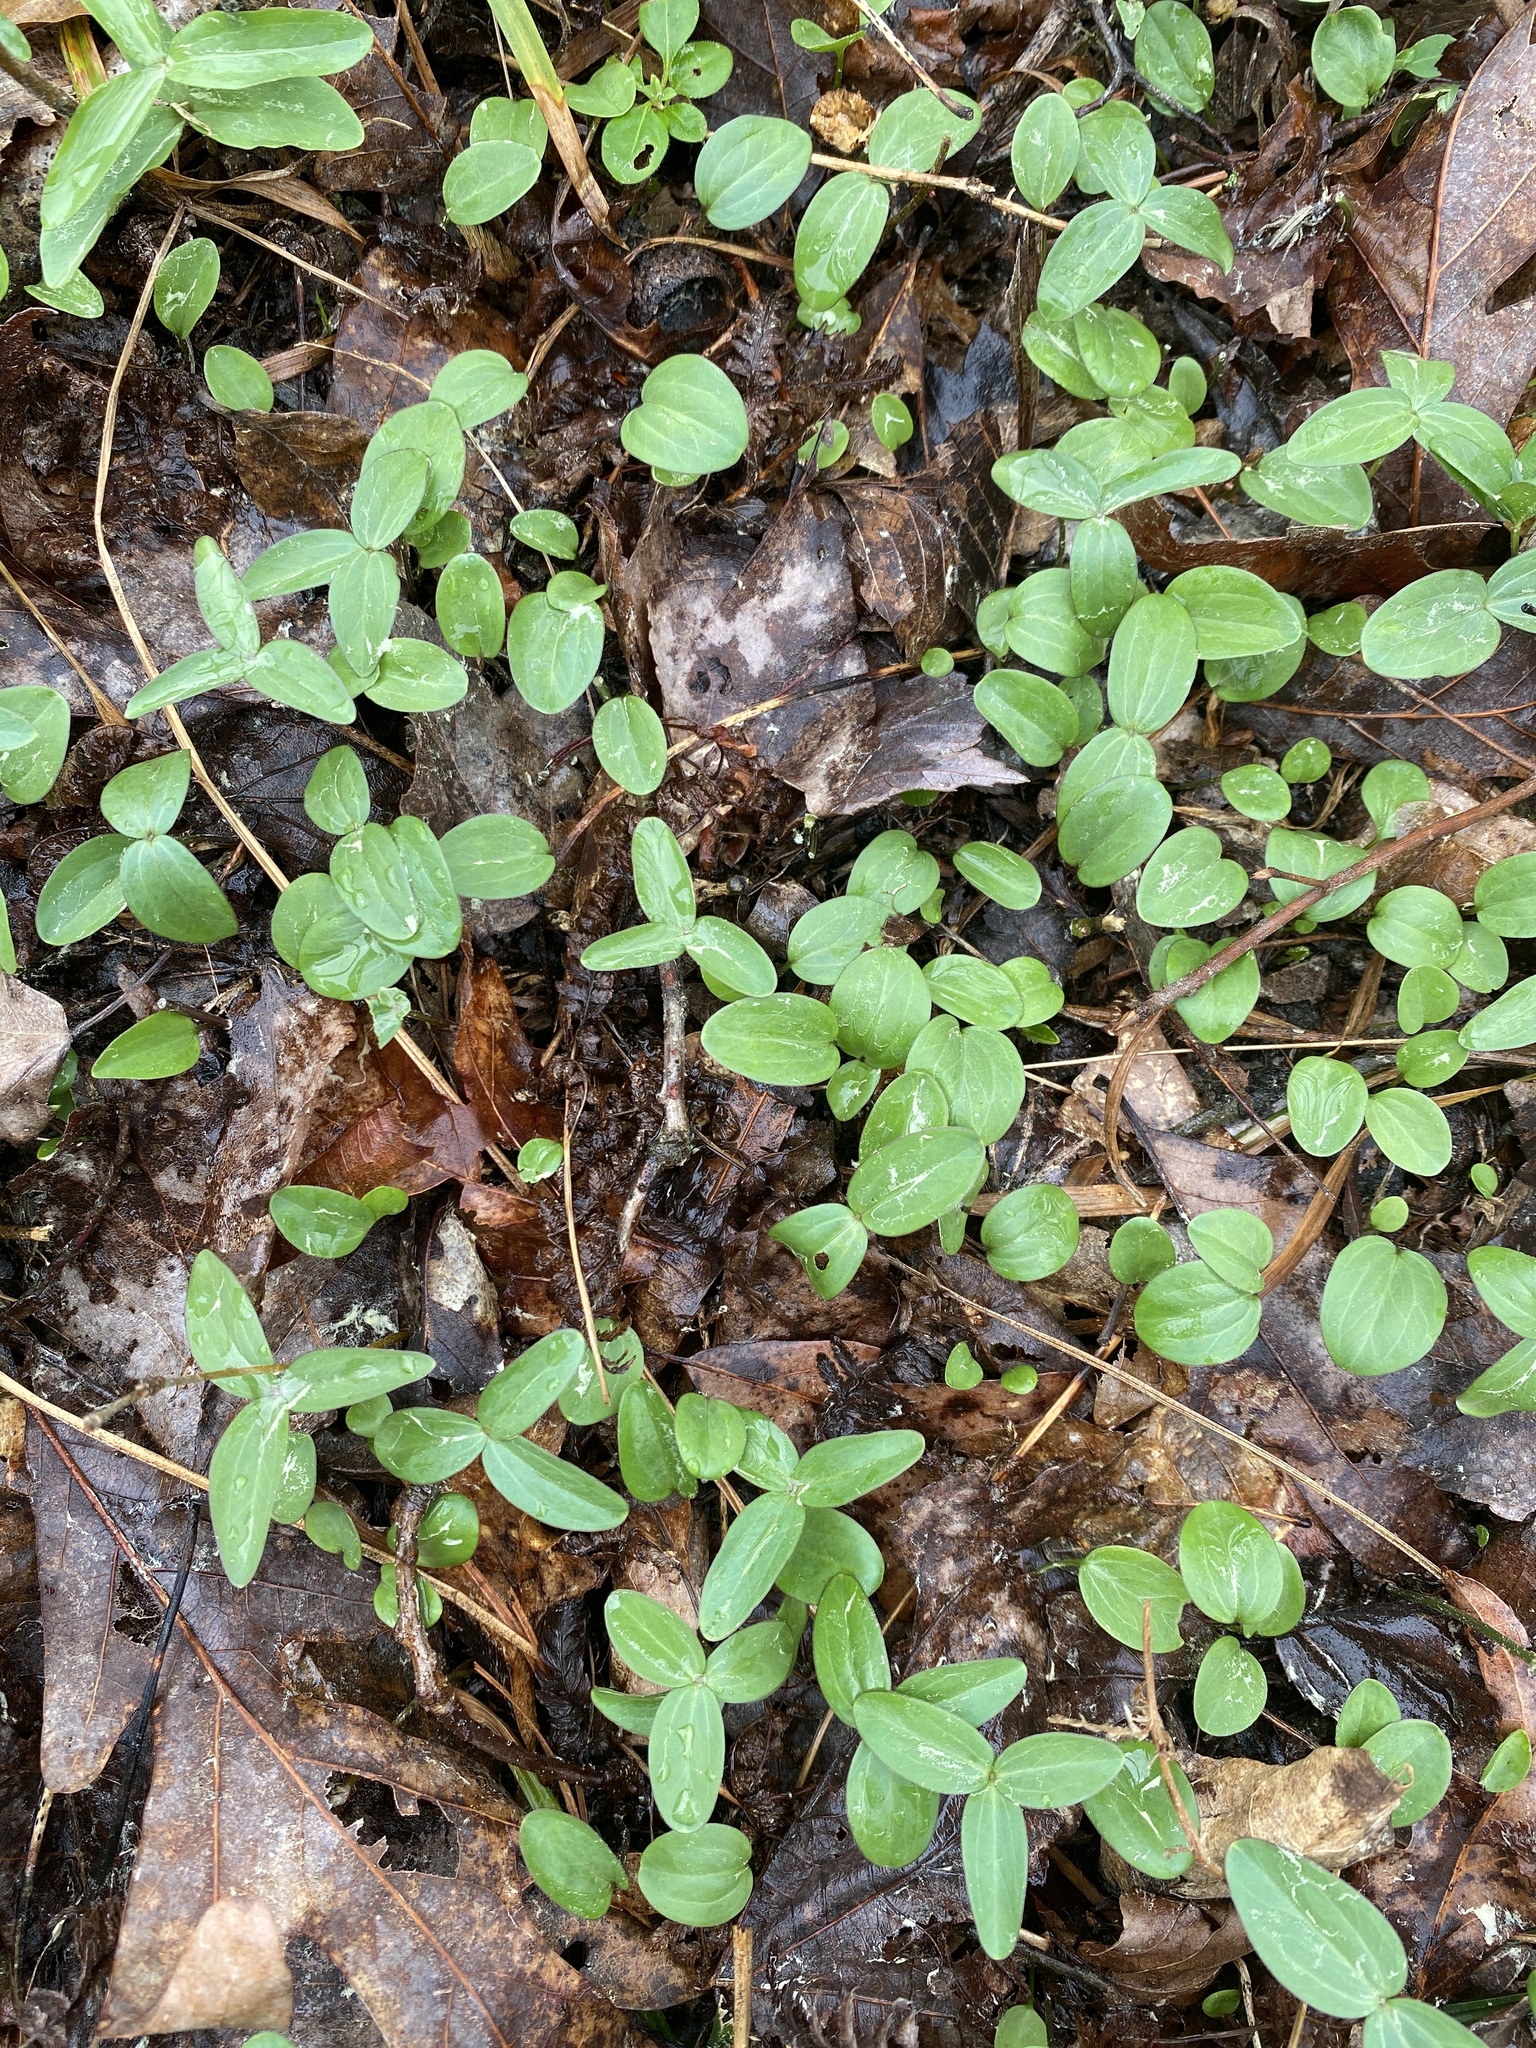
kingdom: Plantae
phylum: Tracheophyta
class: Liliopsida
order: Liliales
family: Melanthiaceae
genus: Trillium
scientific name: Trillium pusillum
